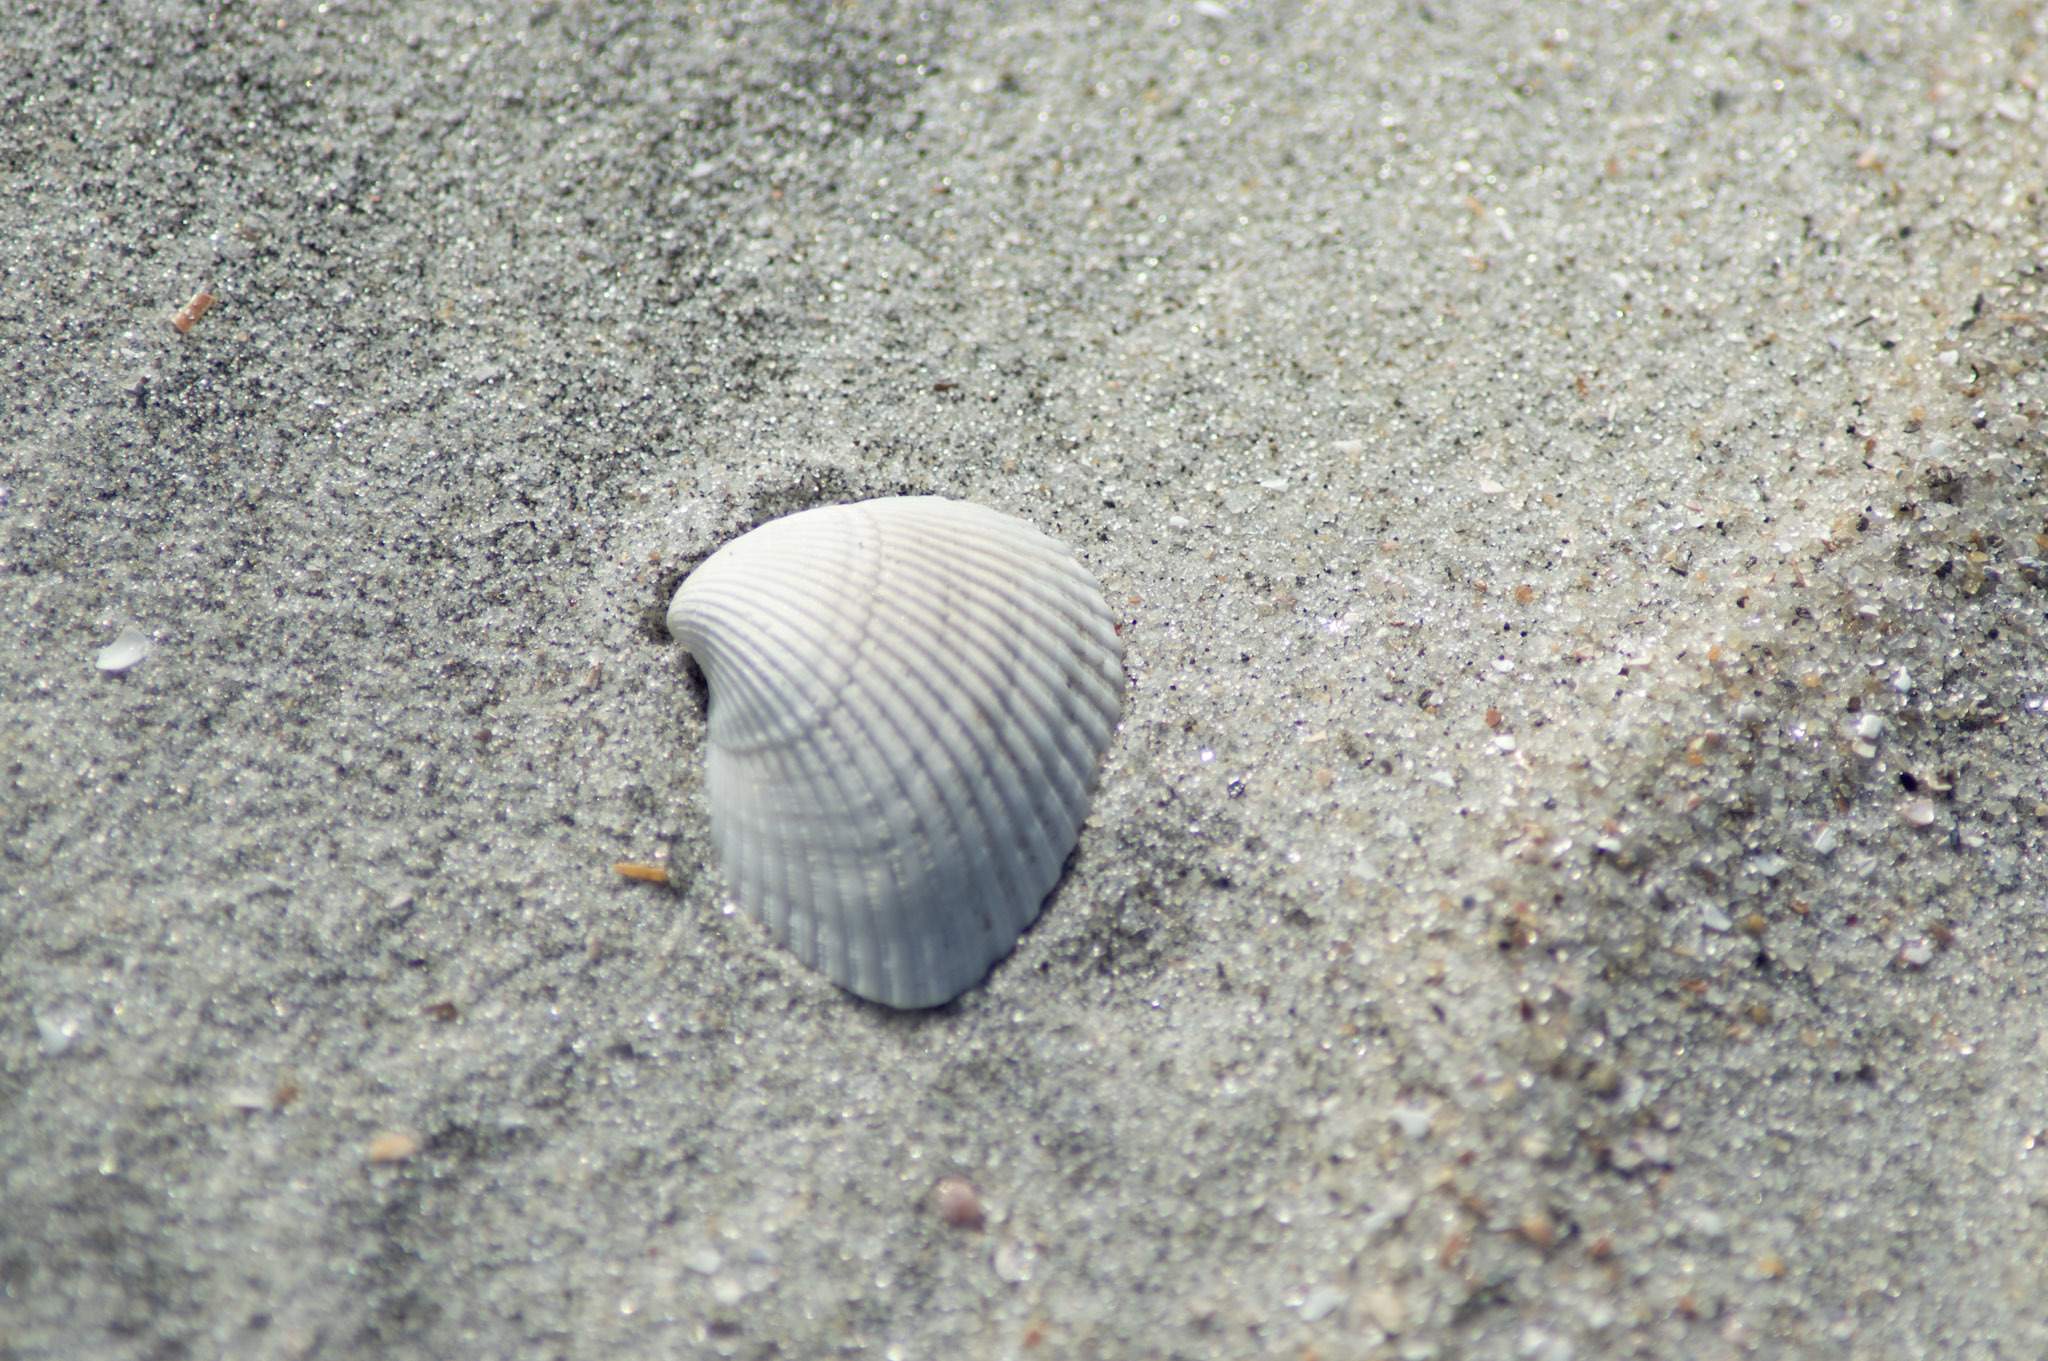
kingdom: Animalia
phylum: Mollusca
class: Bivalvia
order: Arcida
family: Noetiidae
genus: Noetia
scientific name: Noetia ponderosa
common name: Ponderous ark
